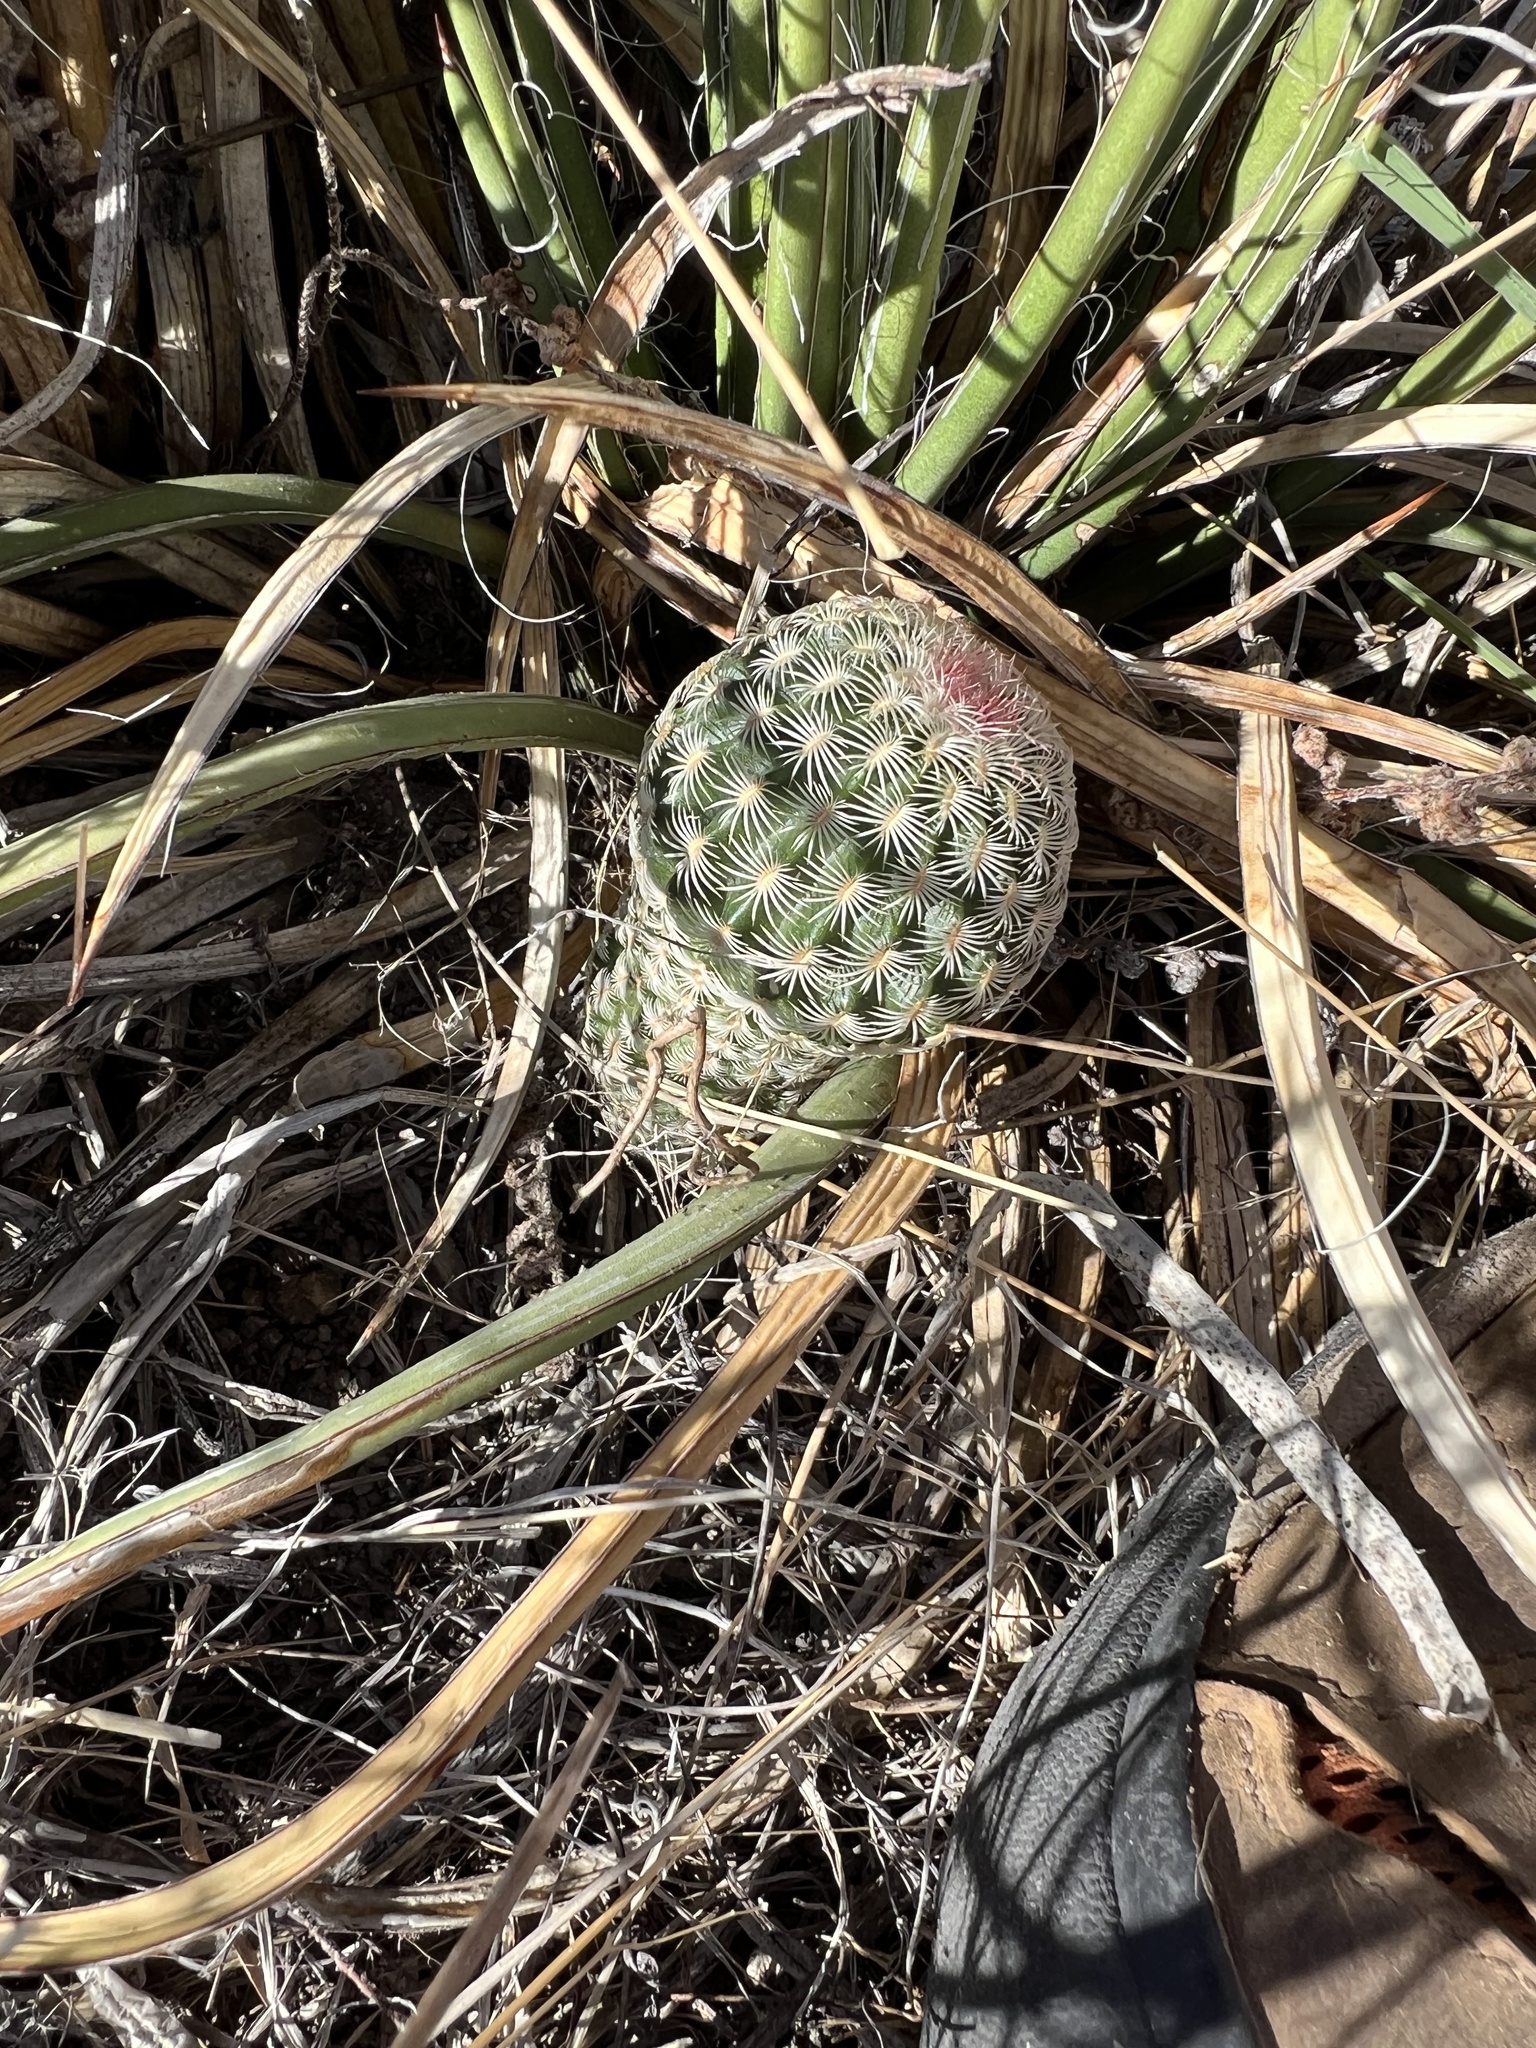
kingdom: Plantae
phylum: Tracheophyta
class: Magnoliopsida
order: Caryophyllales
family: Cactaceae
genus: Echinocereus
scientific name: Echinocereus rigidissimus
